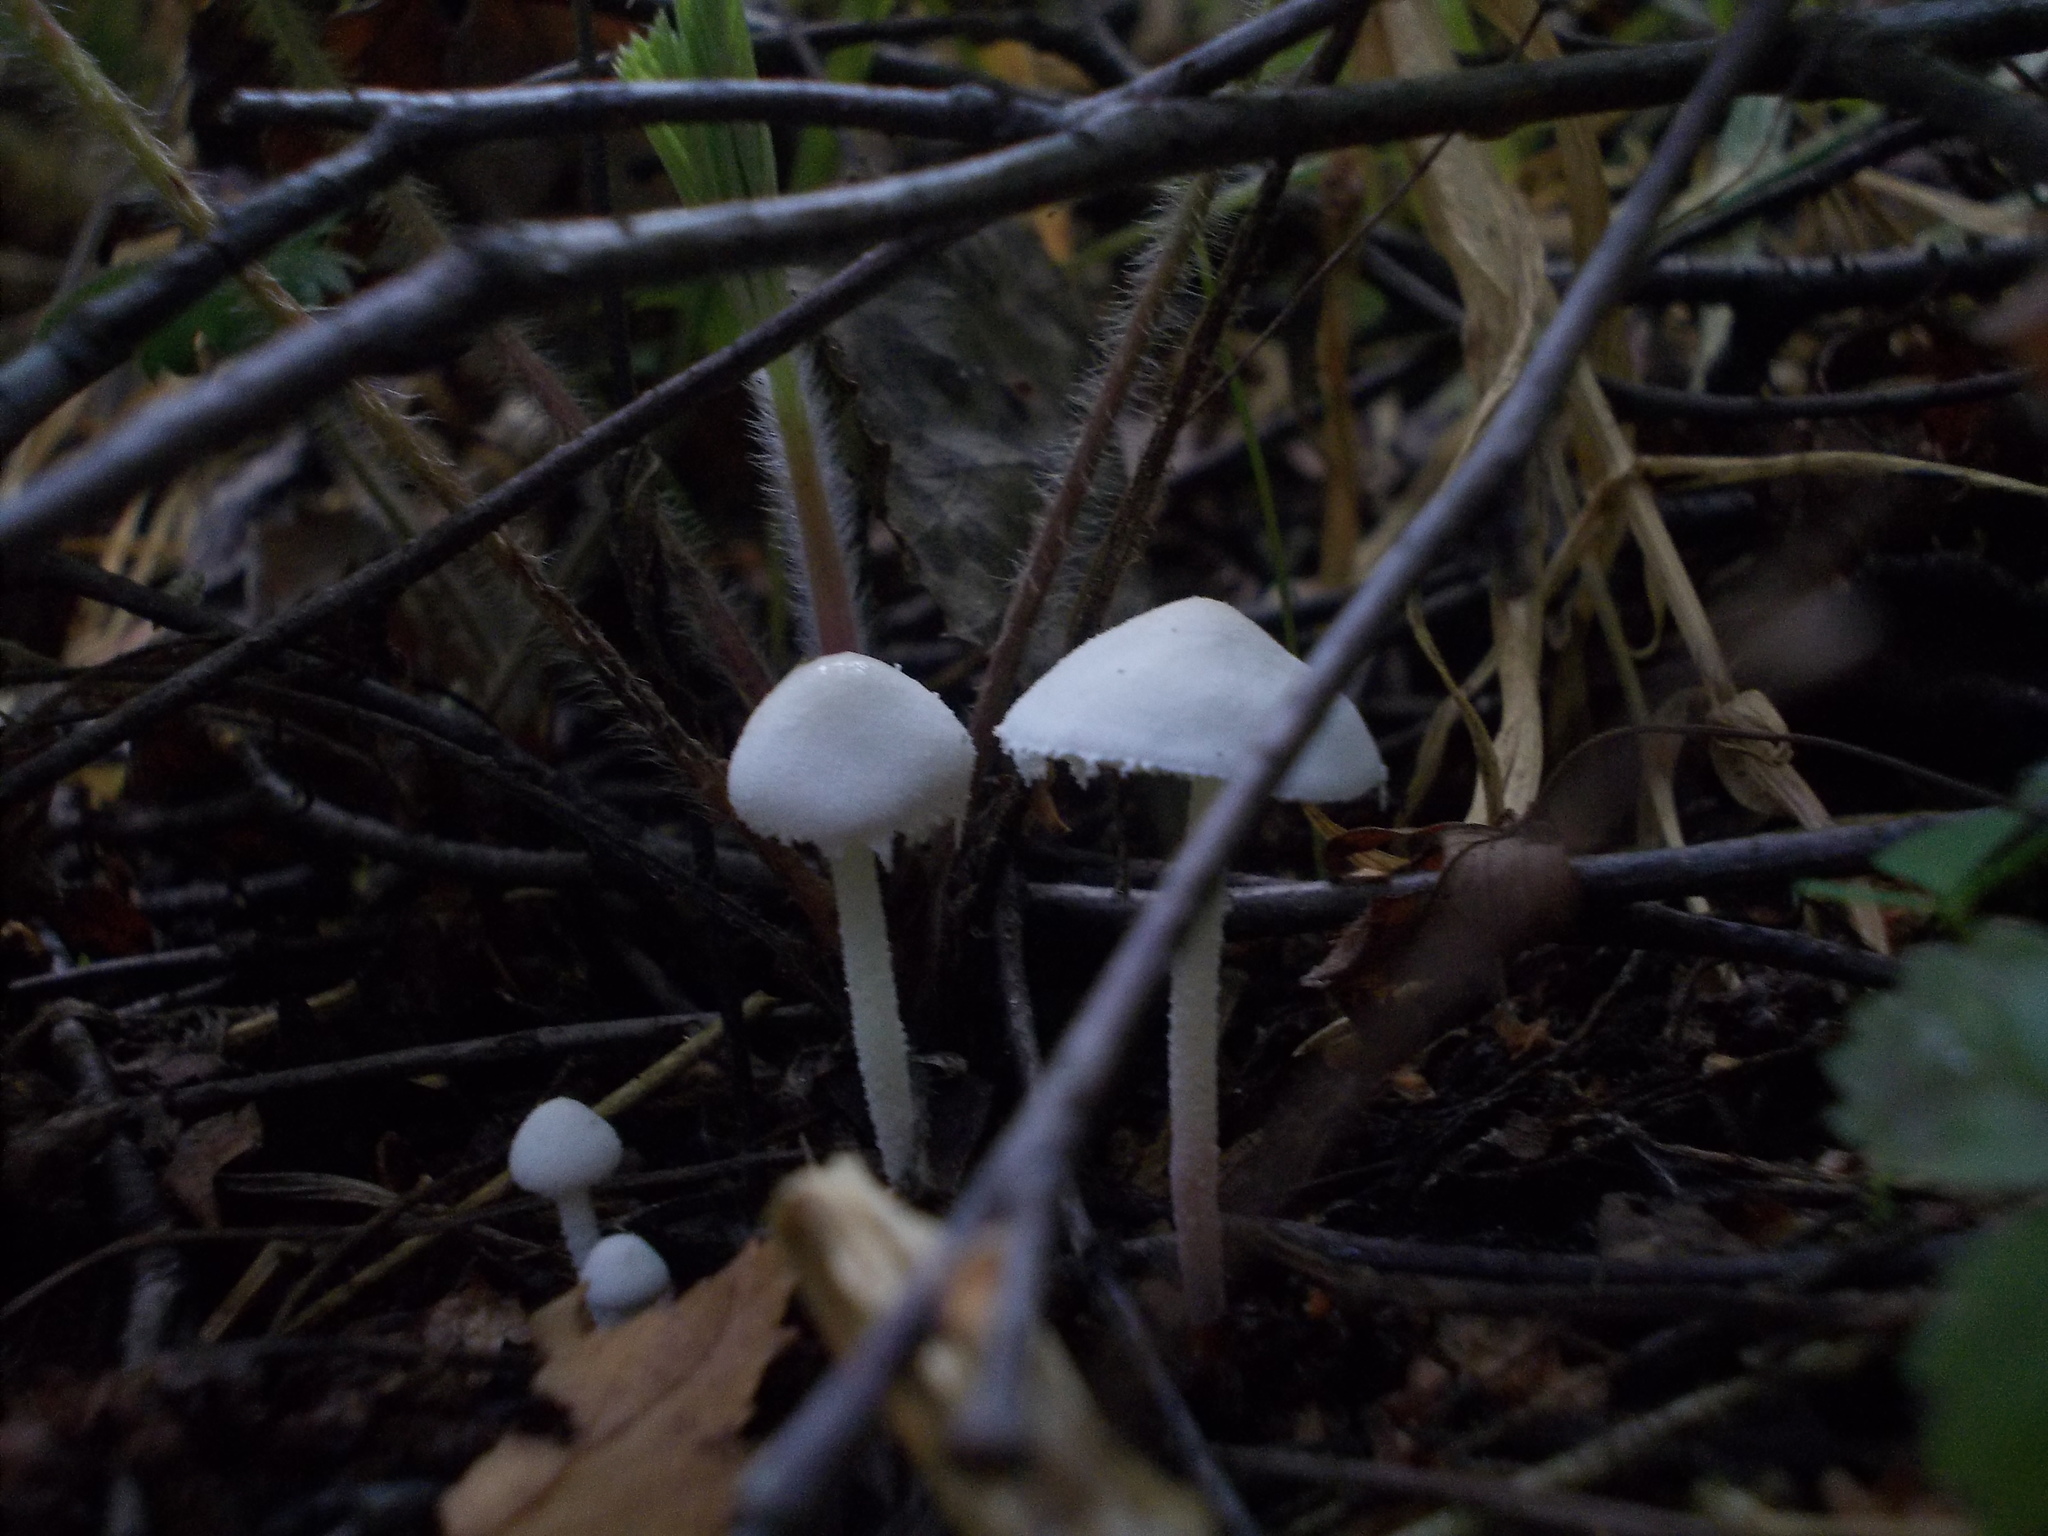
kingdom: Fungi
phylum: Basidiomycota
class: Agaricomycetes
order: Agaricales
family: Agaricaceae
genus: Cystolepiota
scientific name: Cystolepiota seminuda
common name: Bearded dapperling
